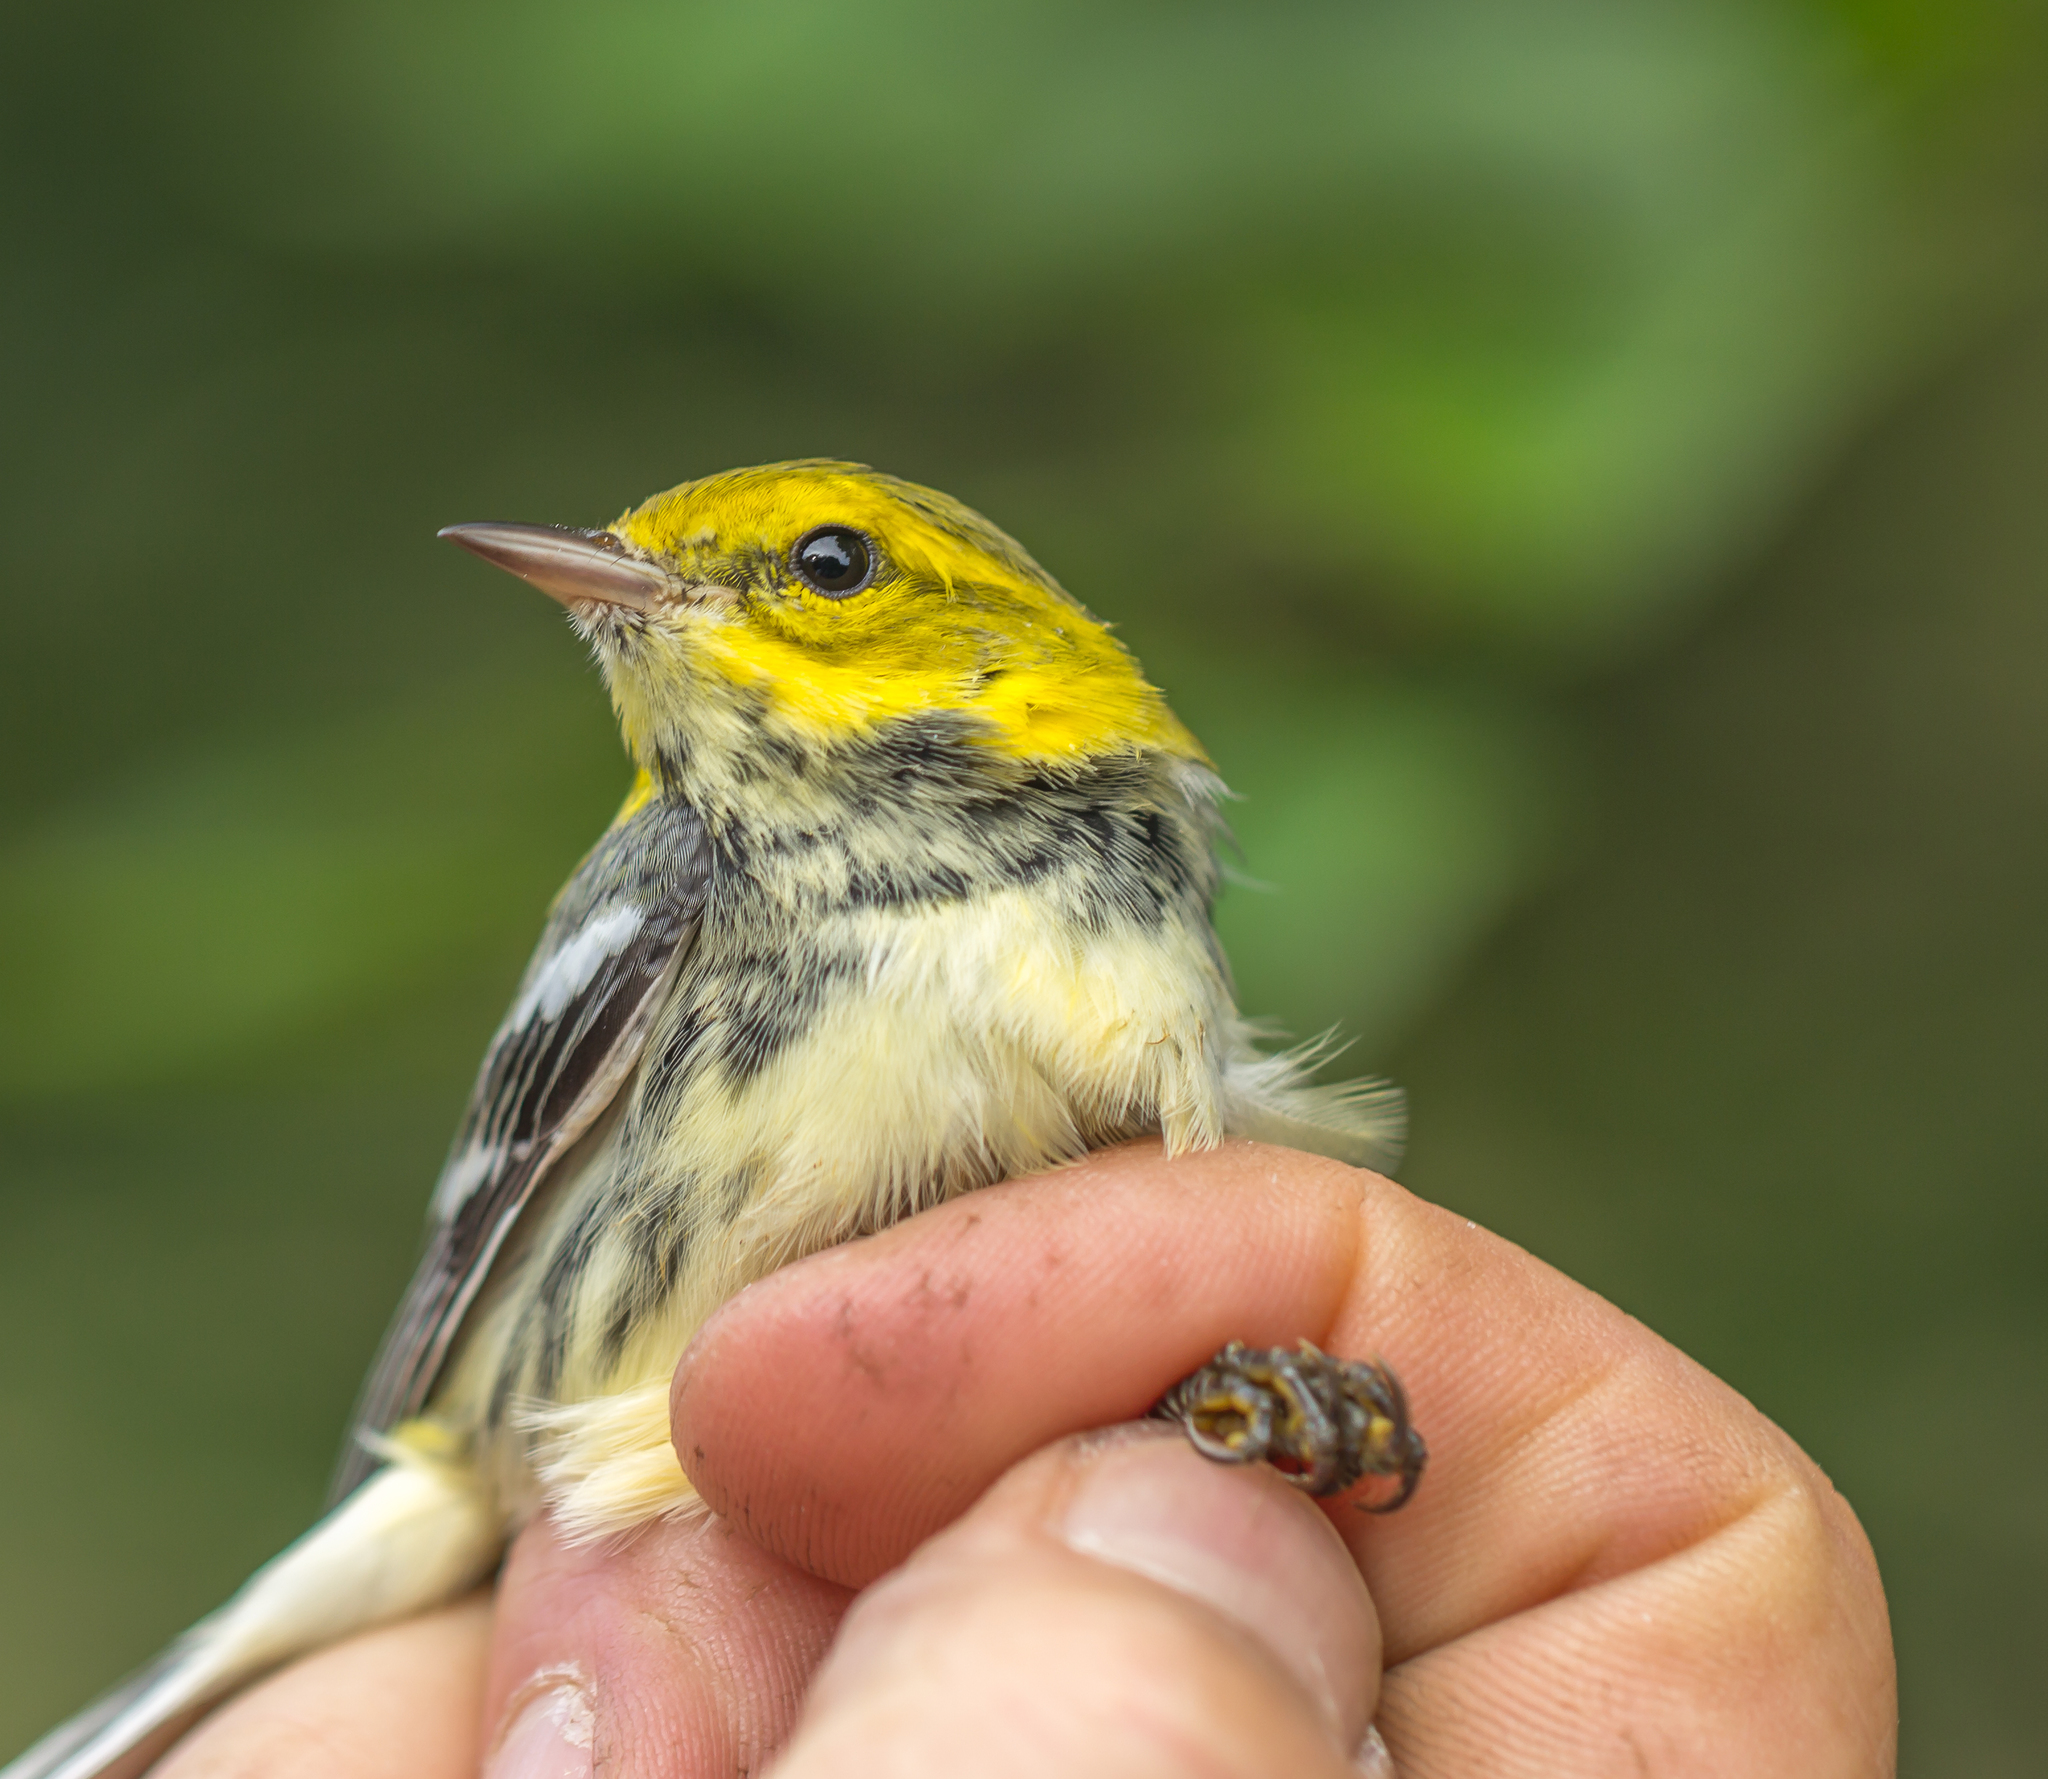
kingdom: Animalia
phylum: Chordata
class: Aves
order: Passeriformes
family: Parulidae
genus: Setophaga
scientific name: Setophaga virens
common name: Black-throated green warbler
